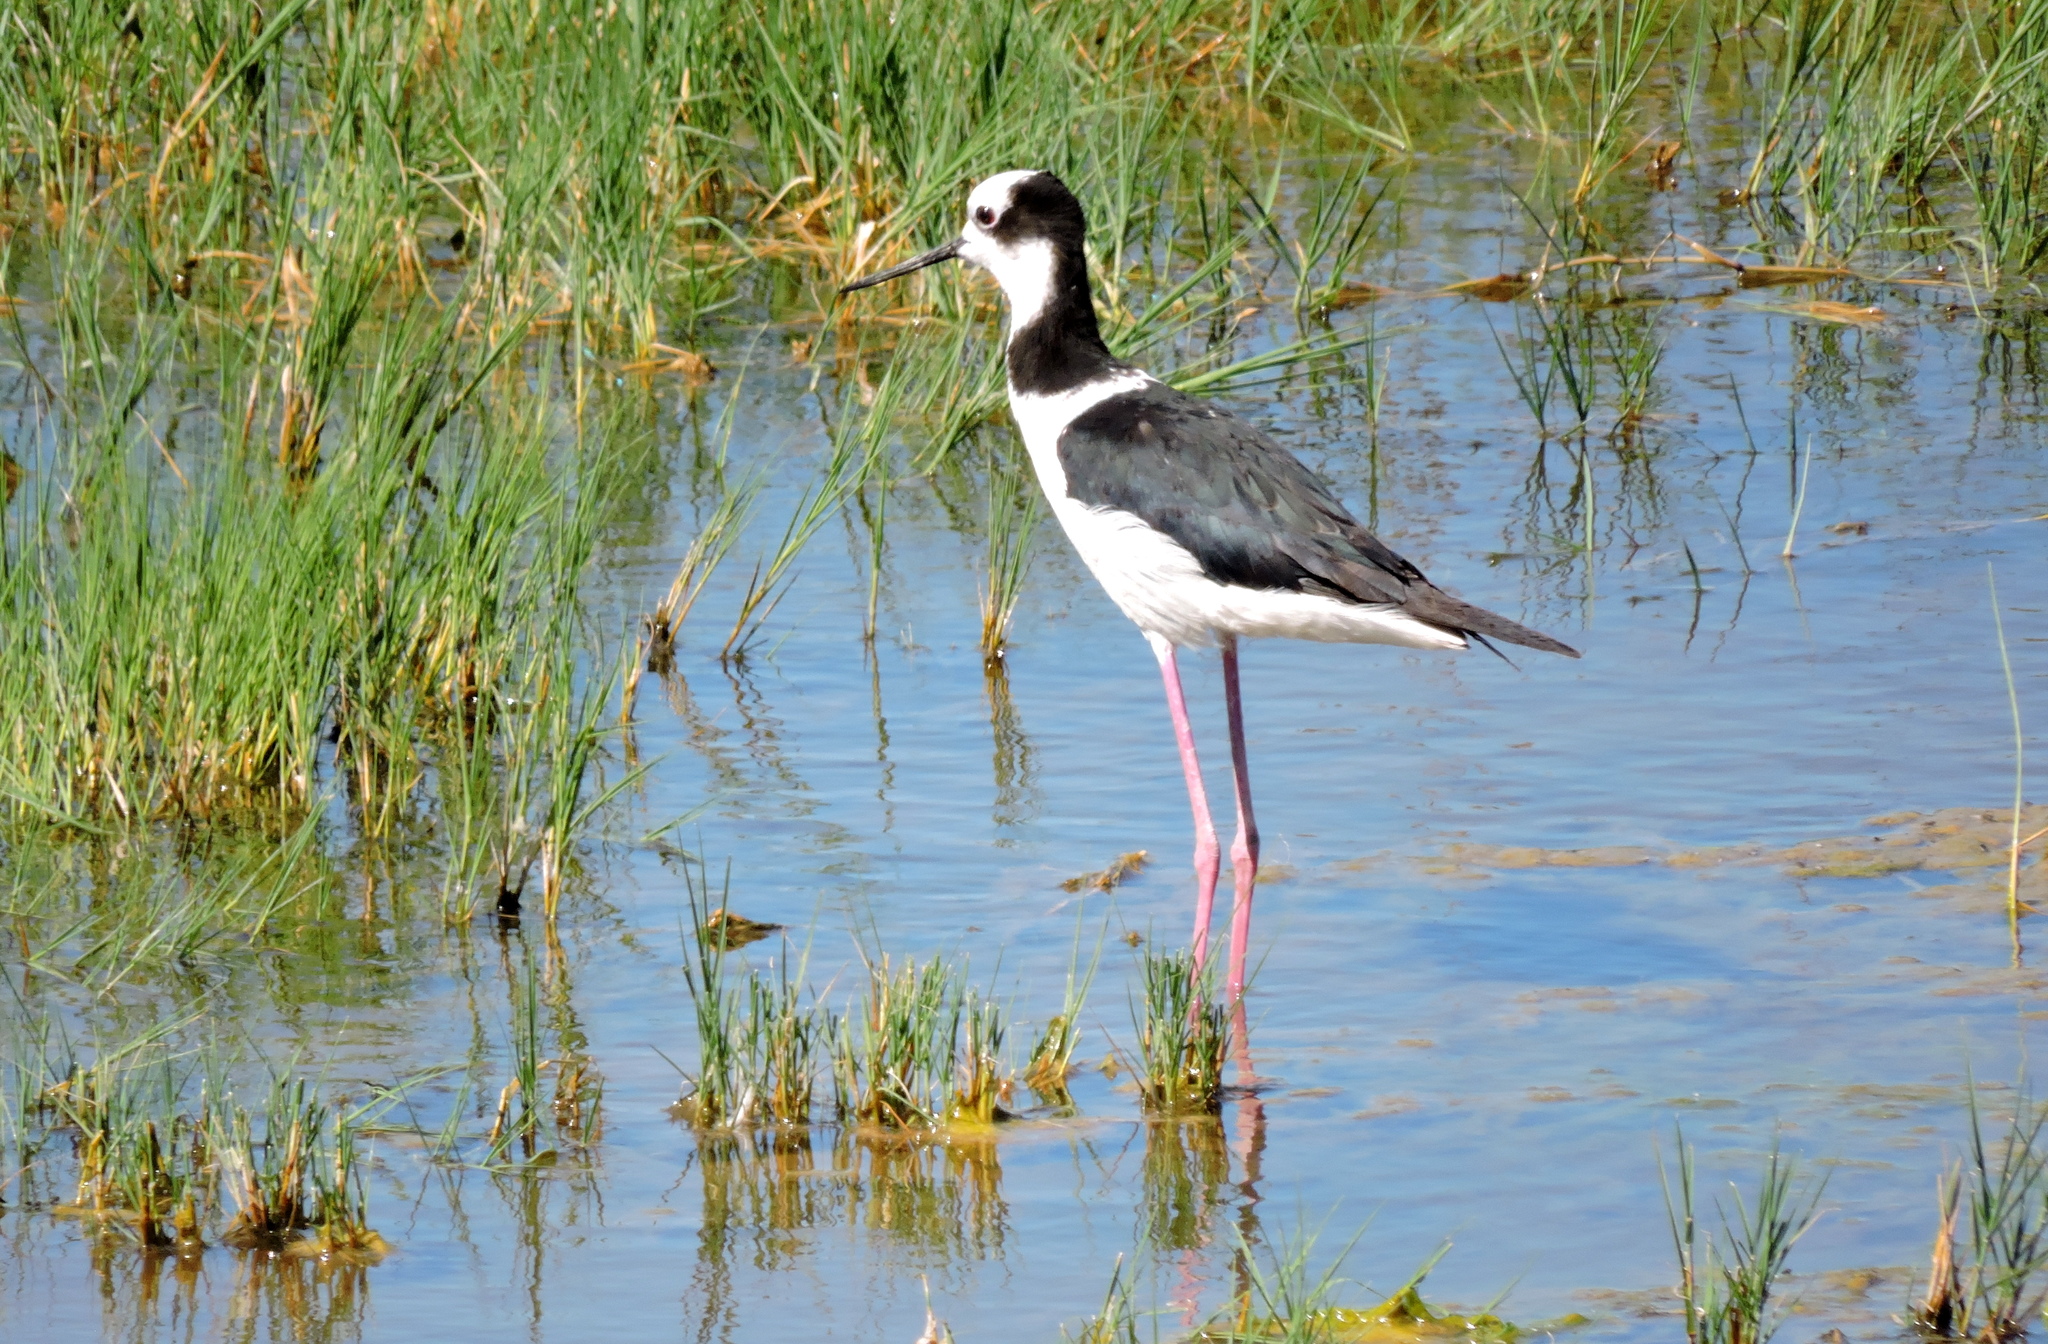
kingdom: Animalia
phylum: Chordata
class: Aves
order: Charadriiformes
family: Recurvirostridae
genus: Himantopus
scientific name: Himantopus mexicanus
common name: Black-necked stilt
